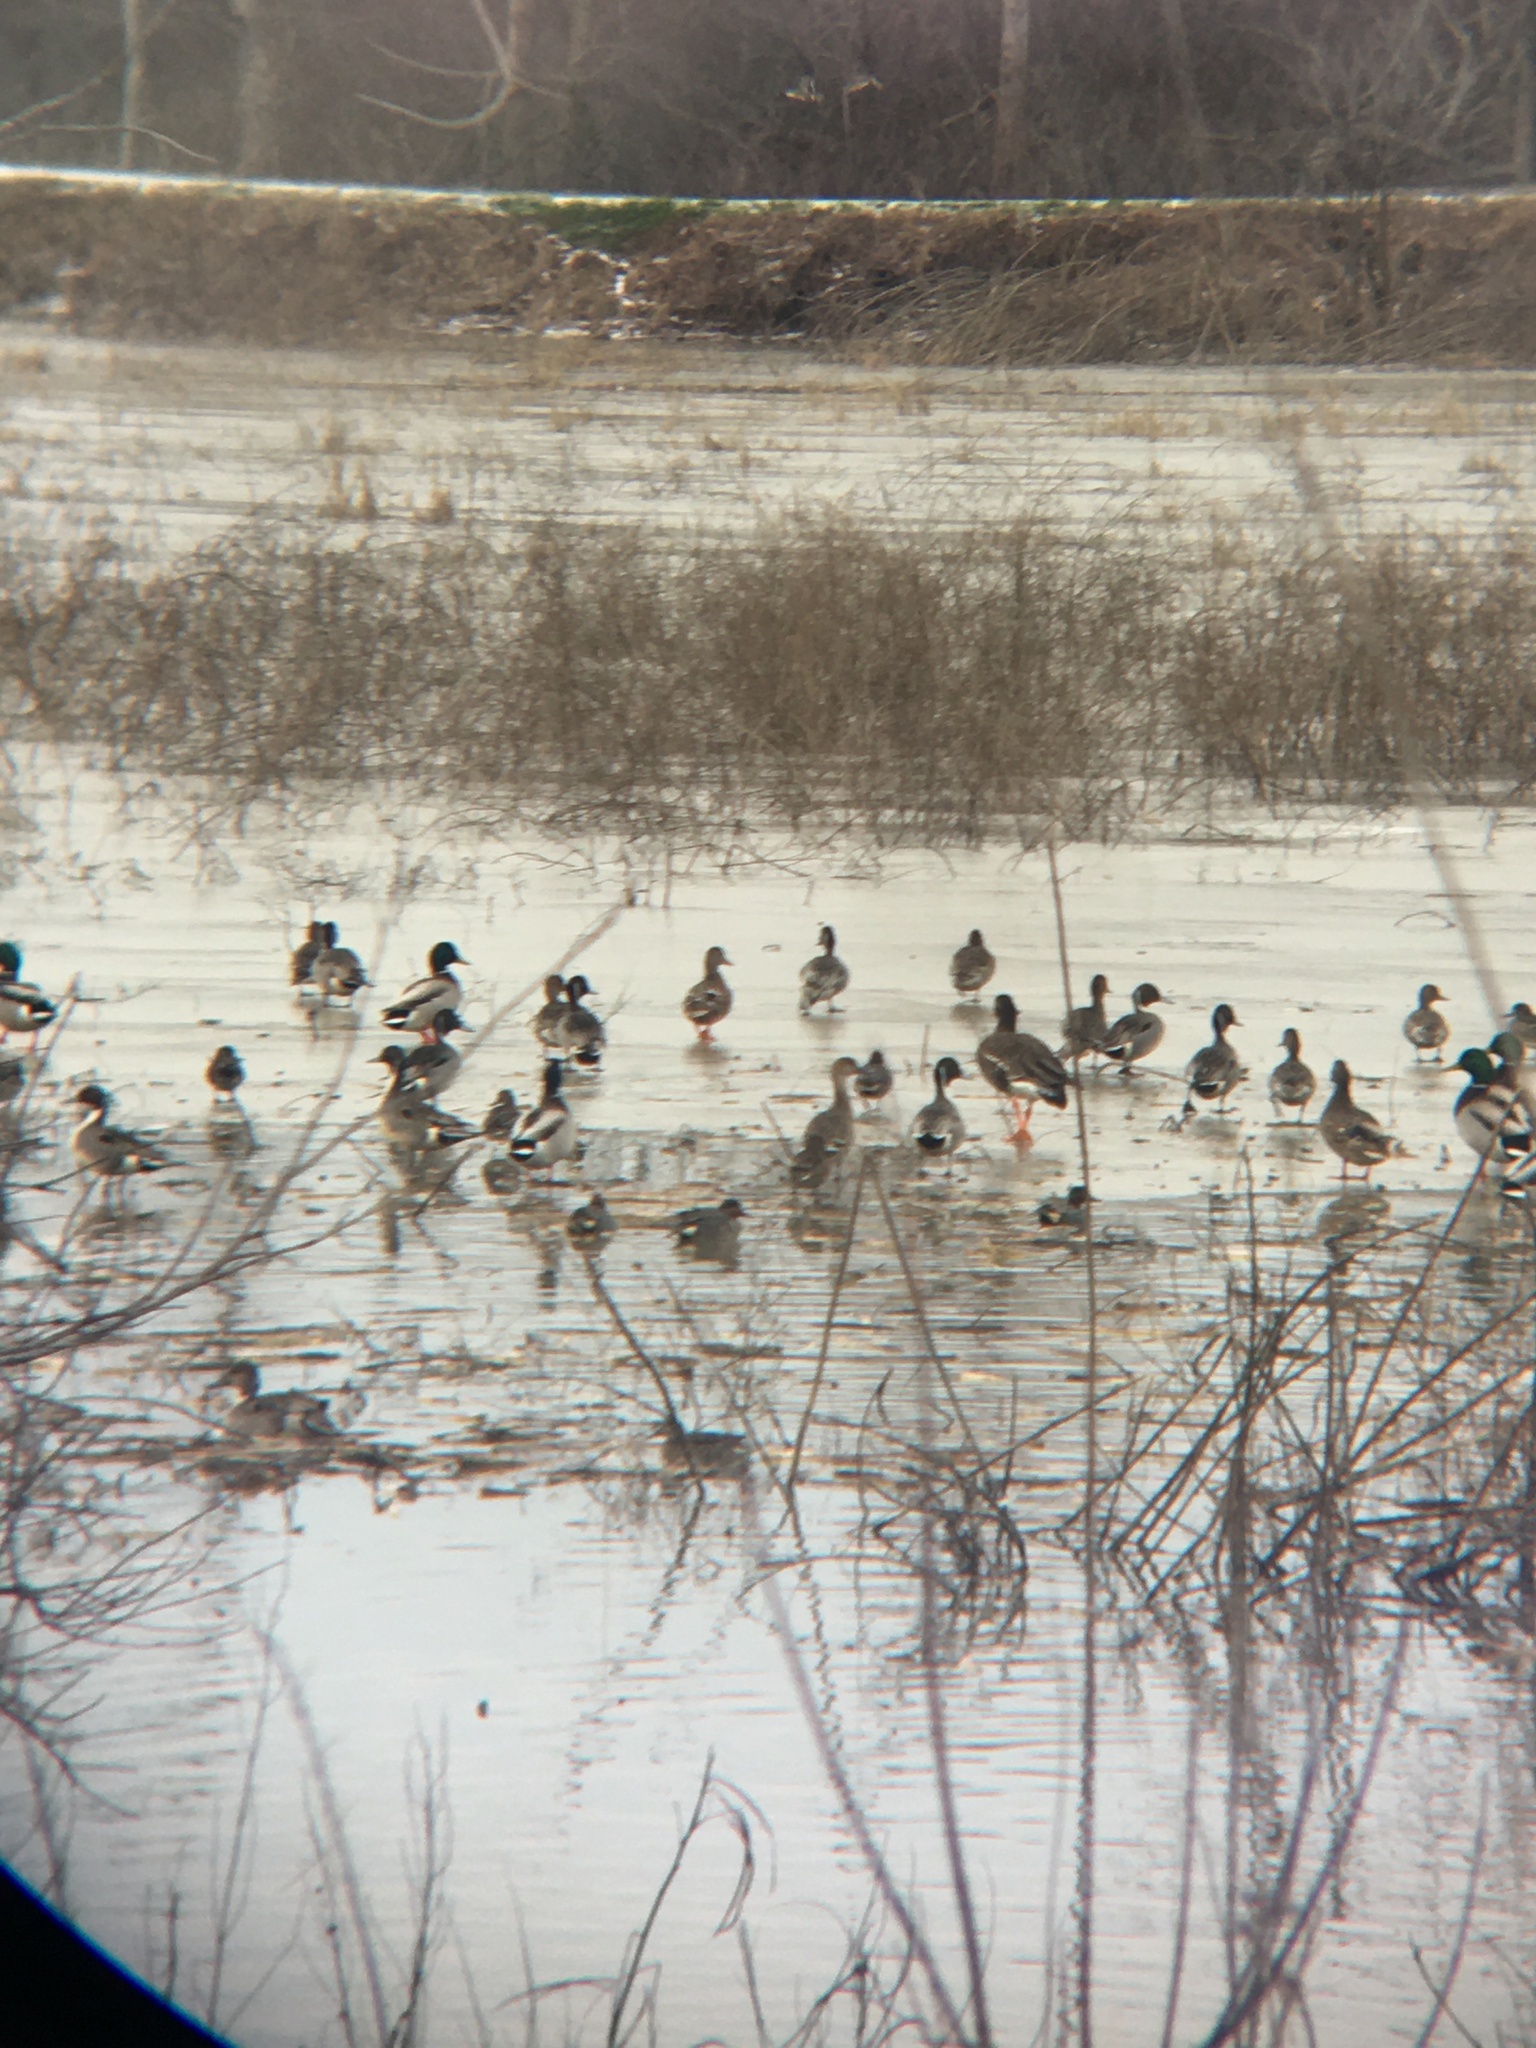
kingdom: Animalia
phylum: Chordata
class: Aves
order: Anseriformes
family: Anatidae
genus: Anas
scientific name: Anas carolinensis
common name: Green-winged teal
